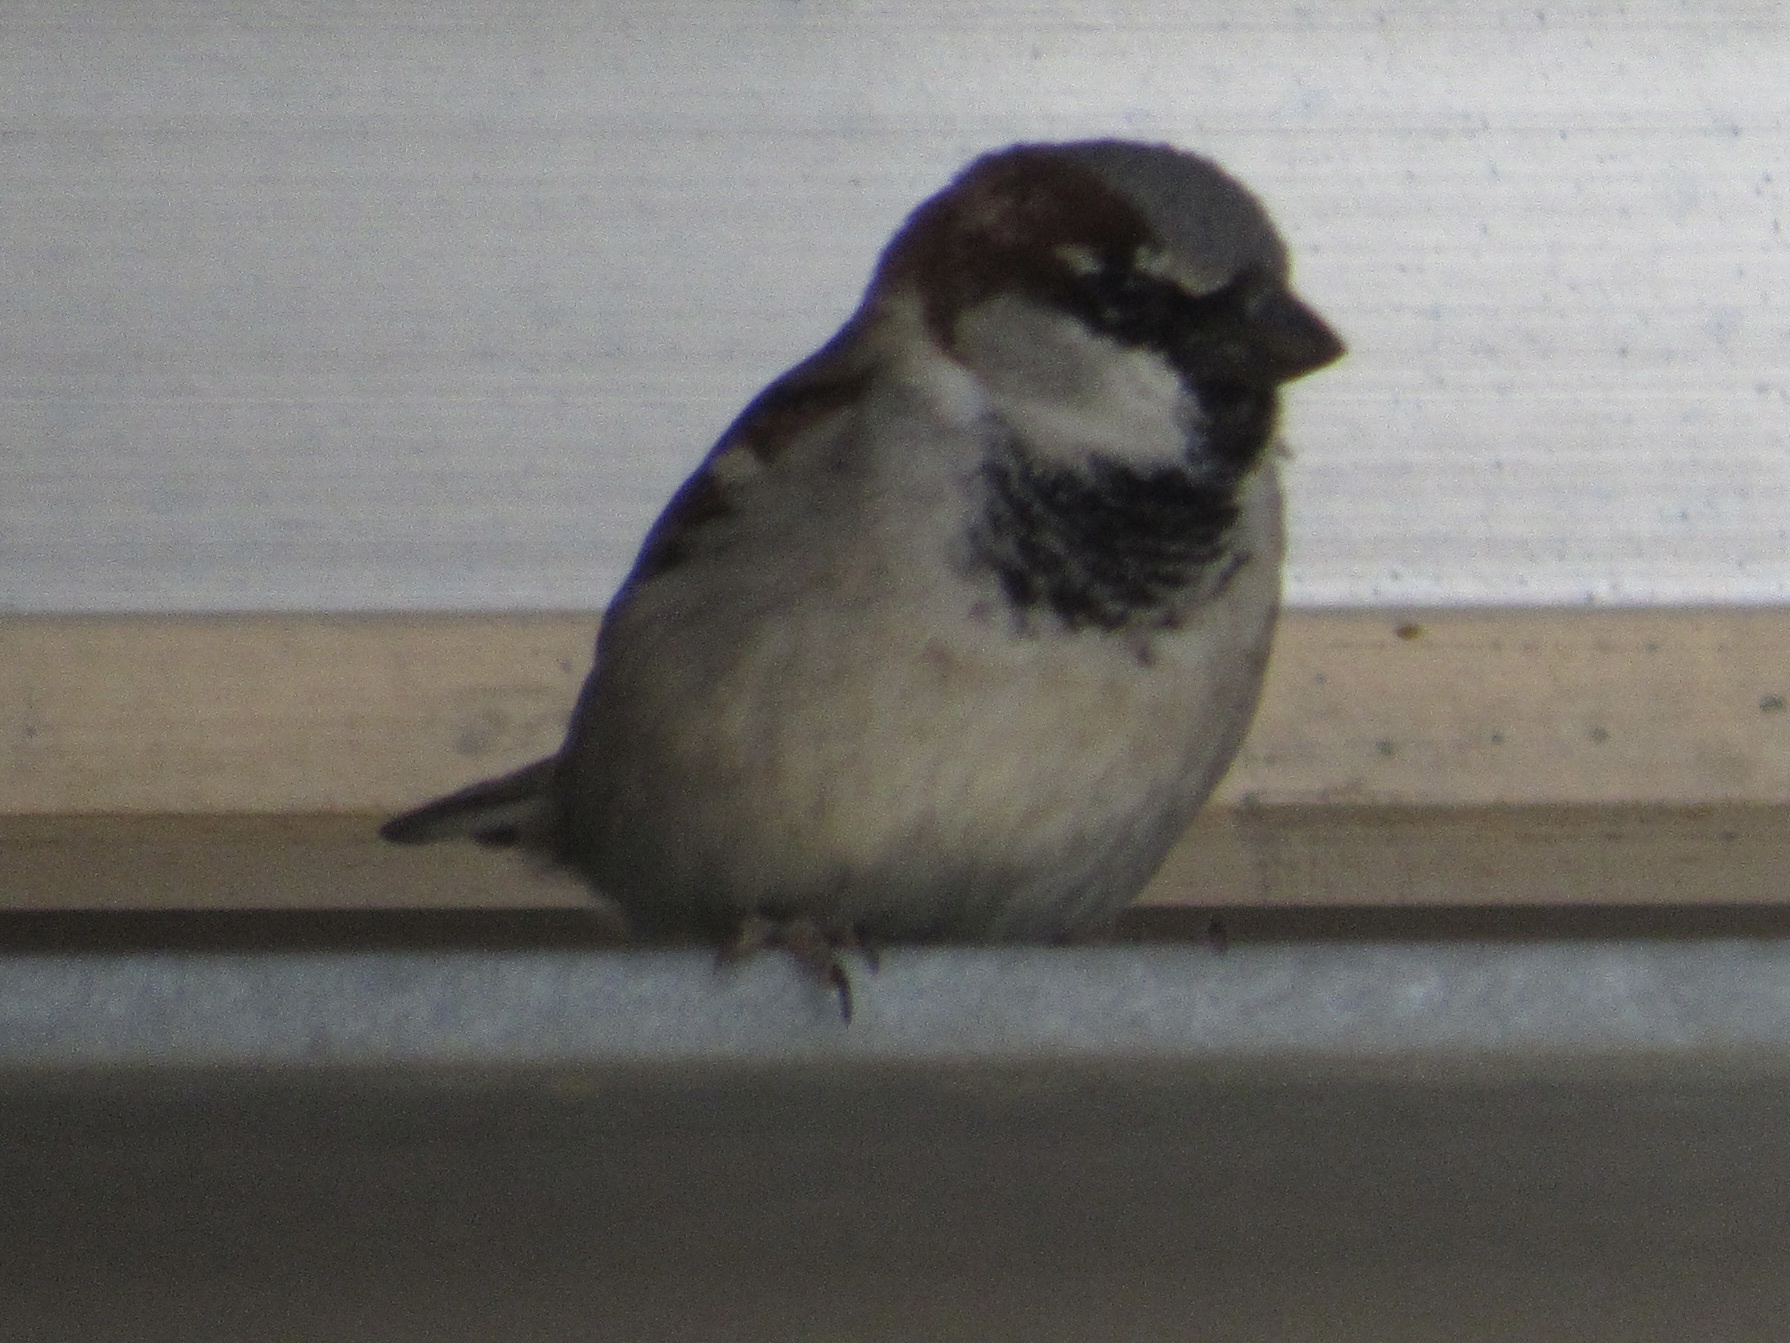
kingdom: Animalia
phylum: Chordata
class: Aves
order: Passeriformes
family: Passeridae
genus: Passer
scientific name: Passer domesticus
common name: House sparrow
